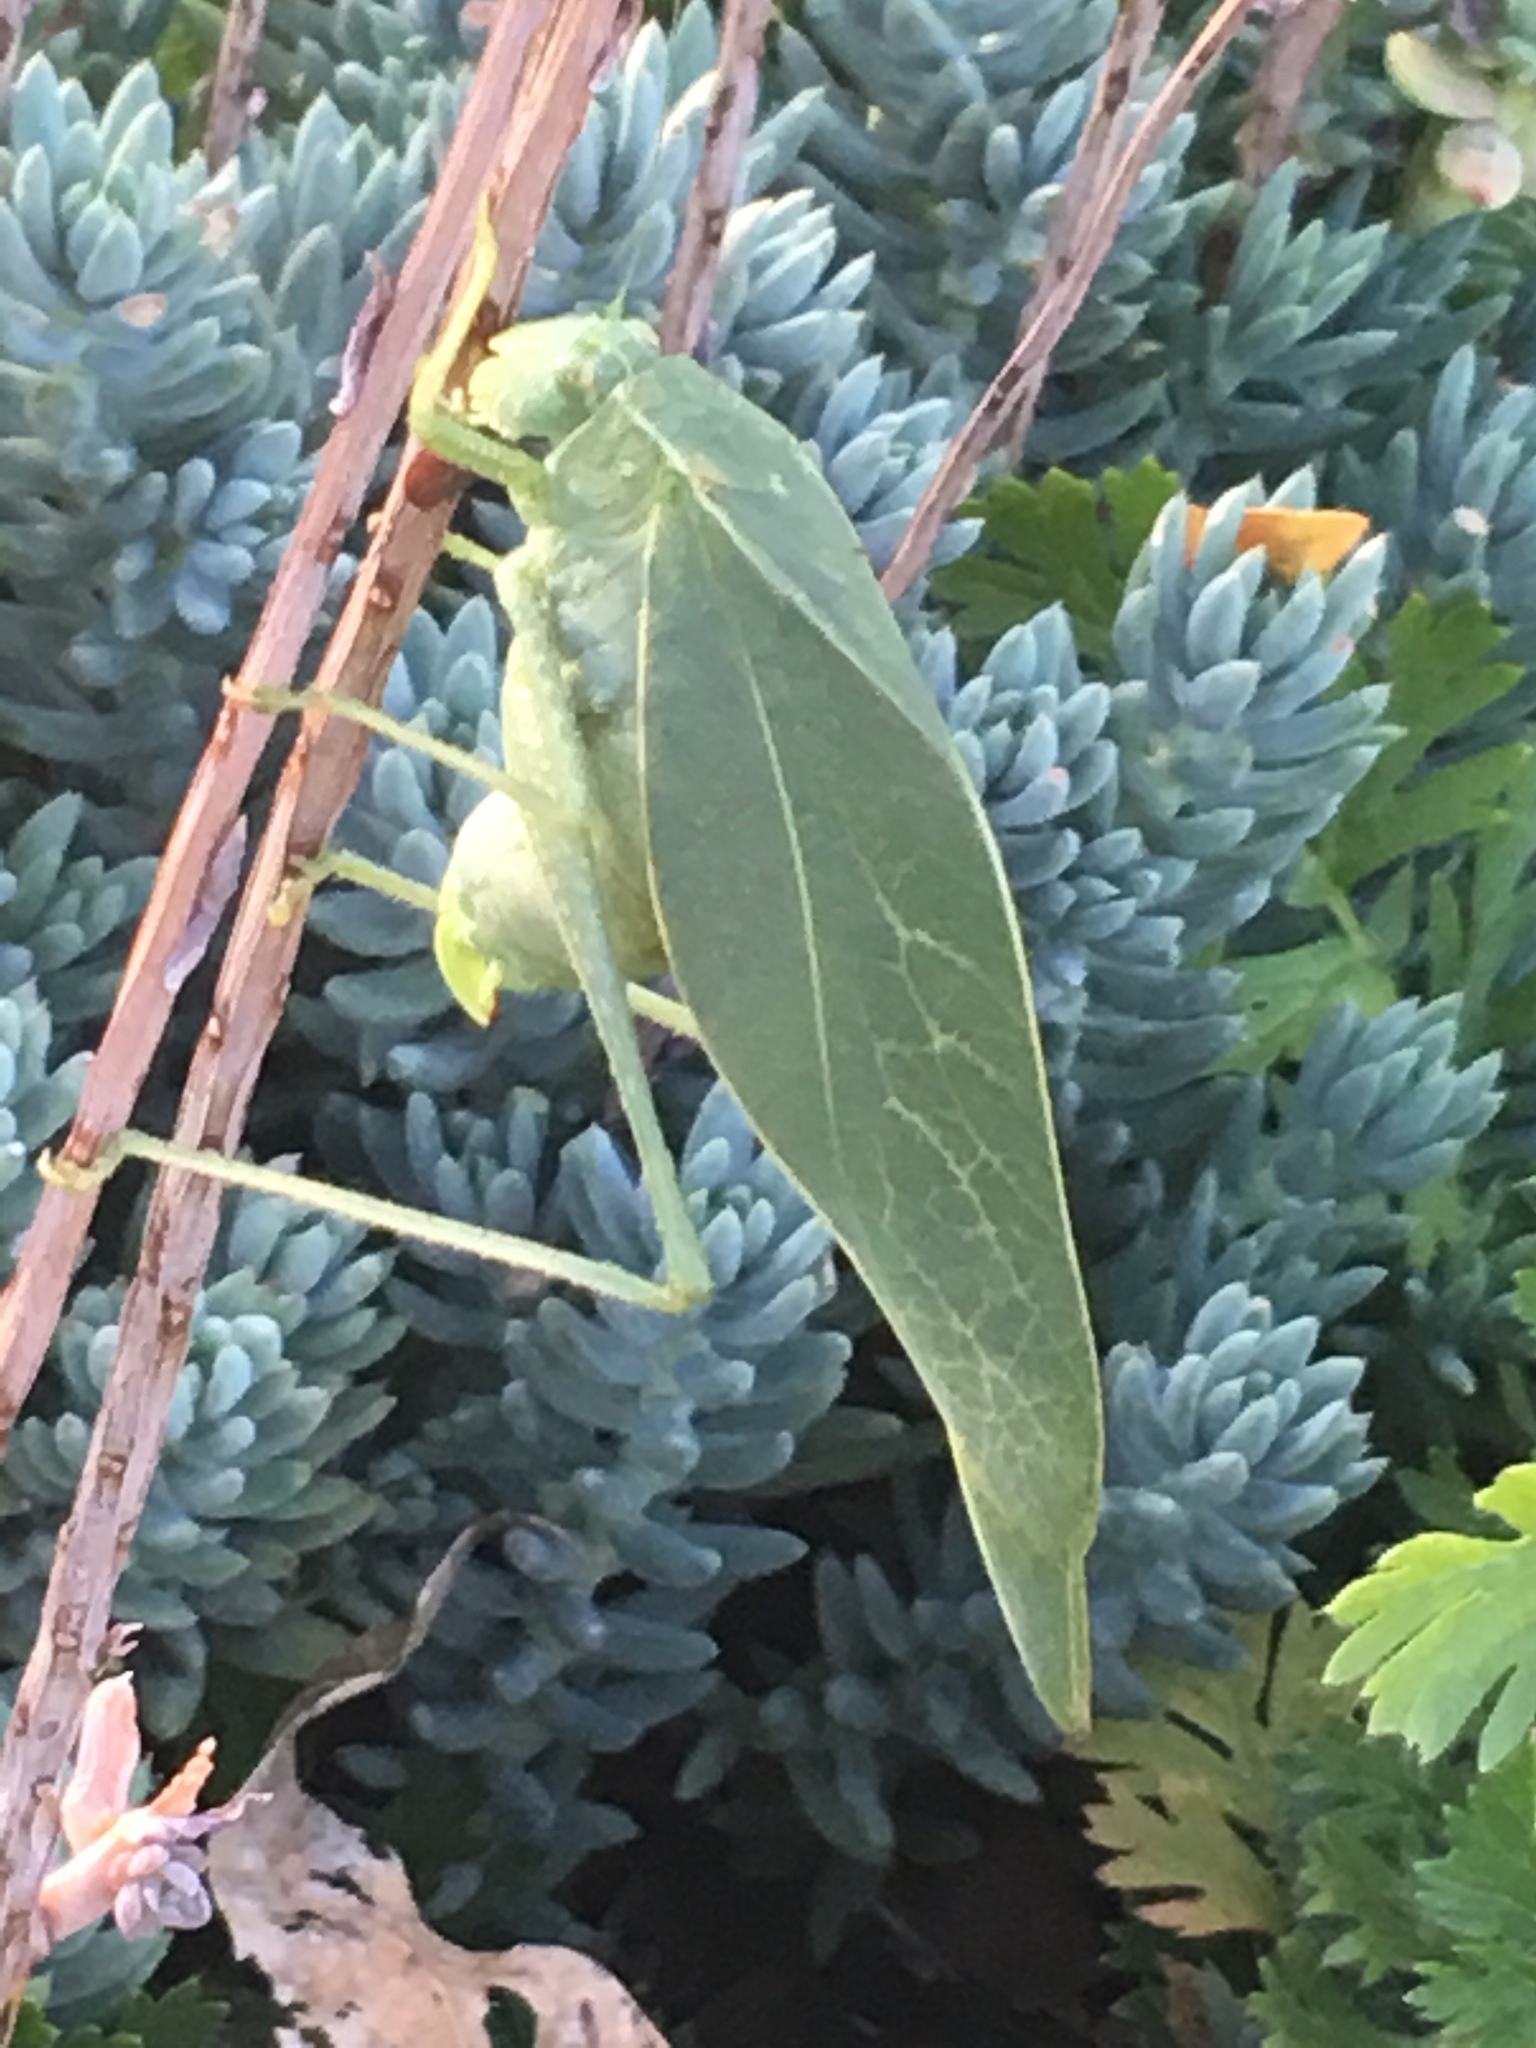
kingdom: Animalia
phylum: Arthropoda
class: Insecta
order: Orthoptera
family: Tettigoniidae
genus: Microcentrum
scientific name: Microcentrum rhombifolium
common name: Broad-winged katydid
